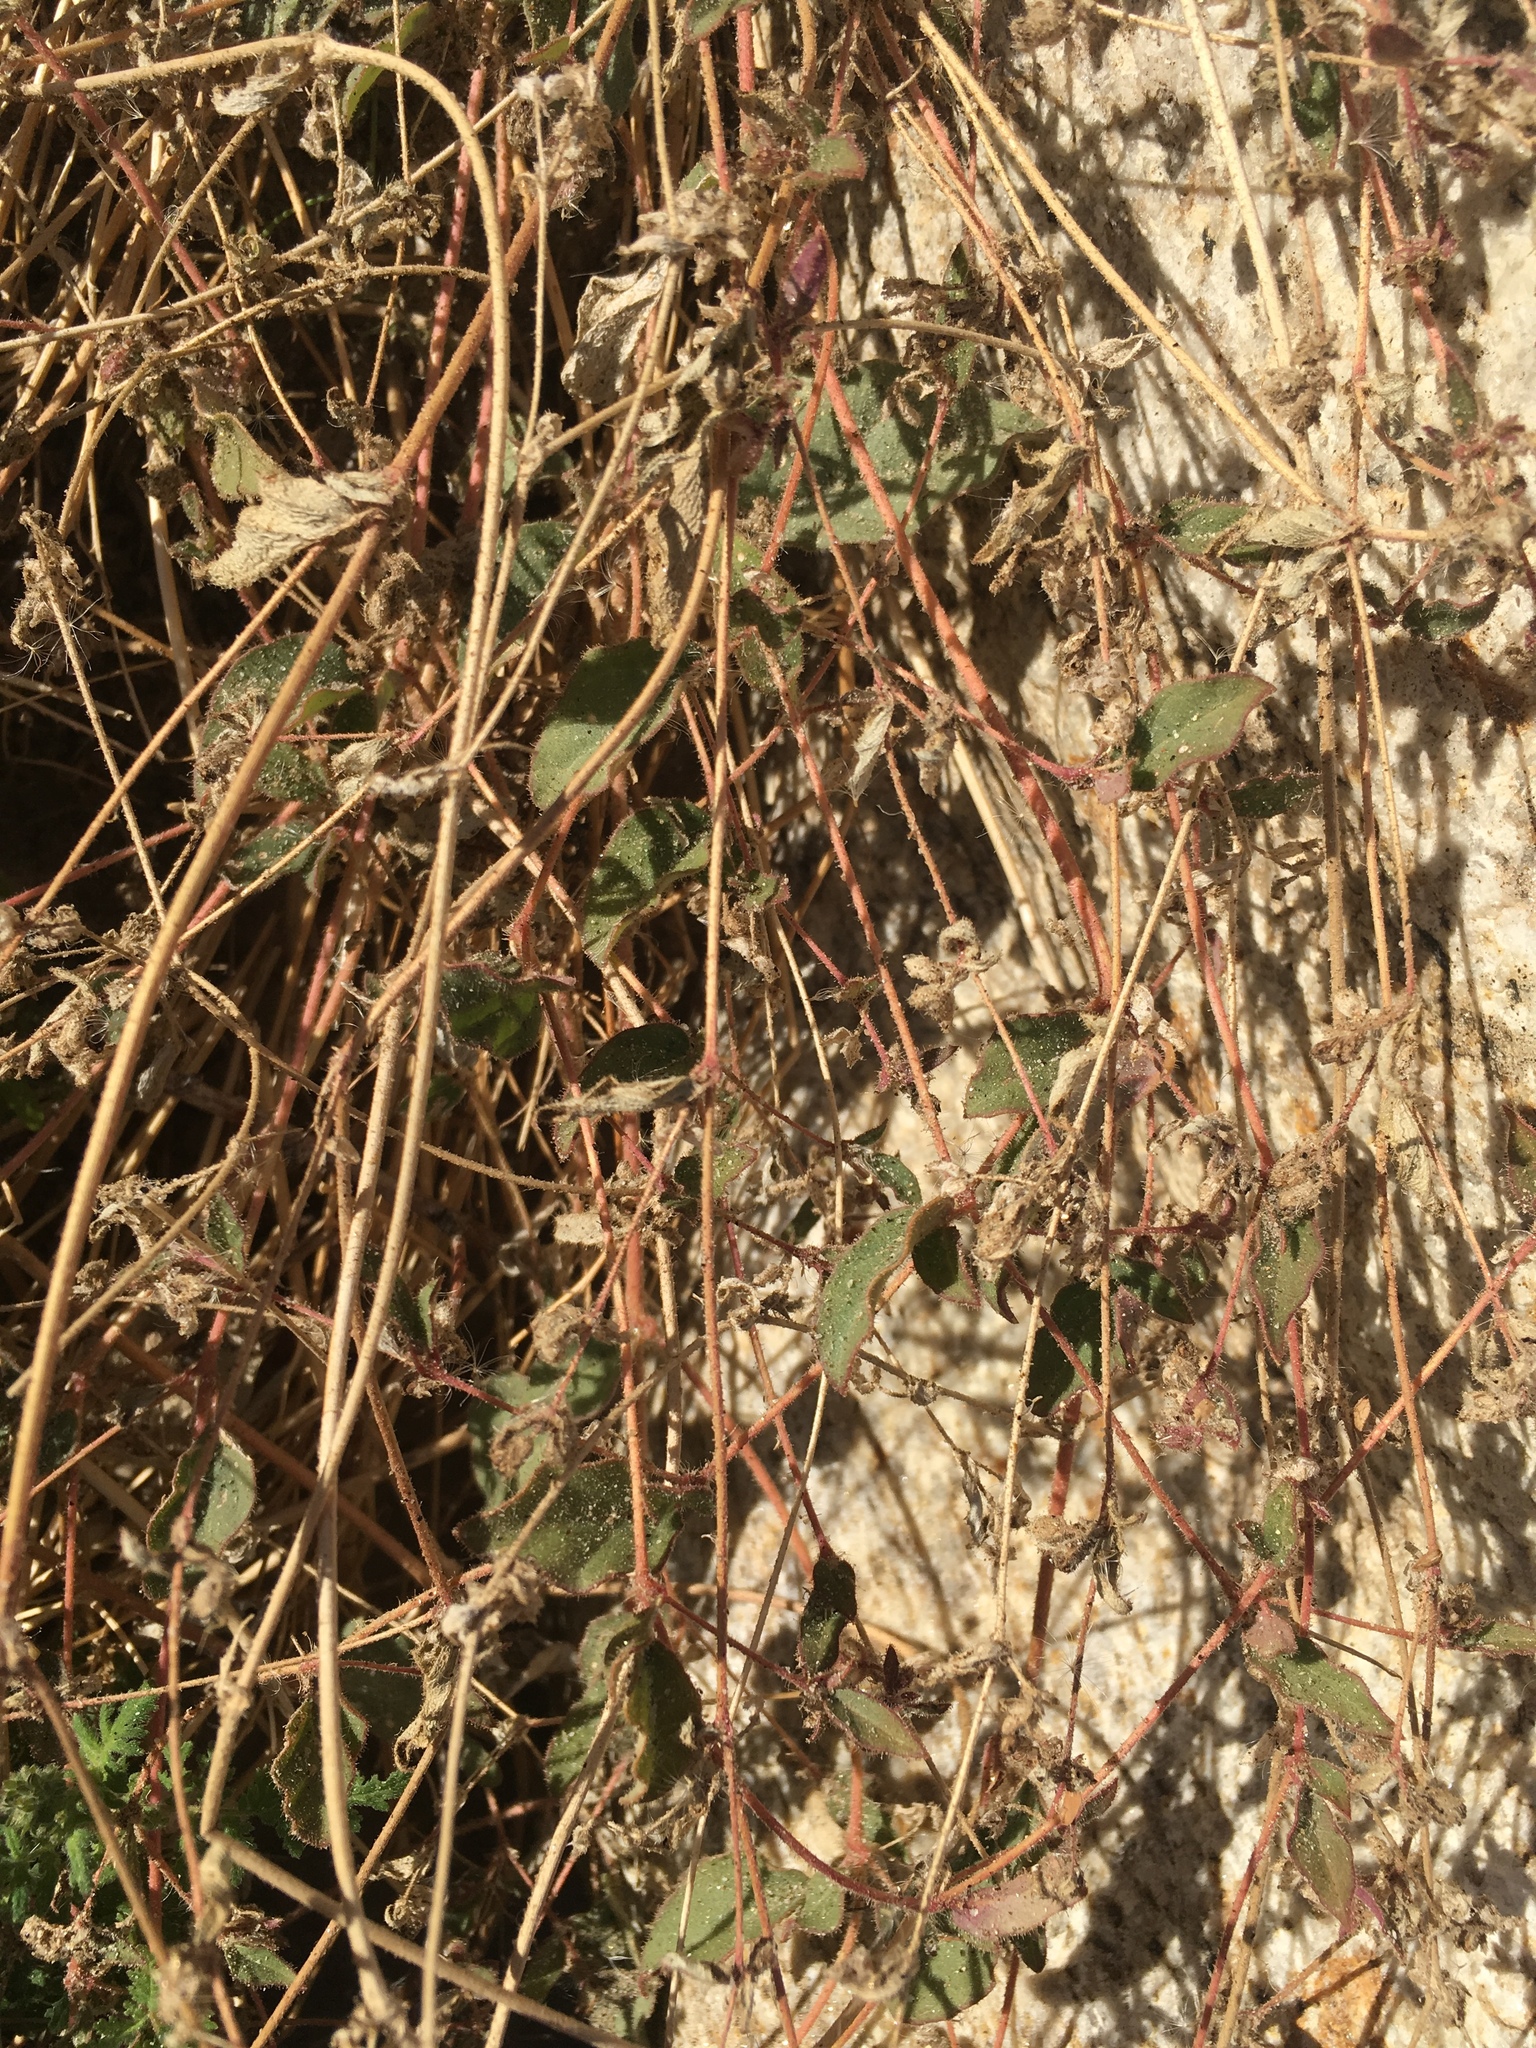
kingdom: Plantae
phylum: Tracheophyta
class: Magnoliopsida
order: Caryophyllales
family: Nyctaginaceae
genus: Allionia
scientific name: Allionia incarnata
